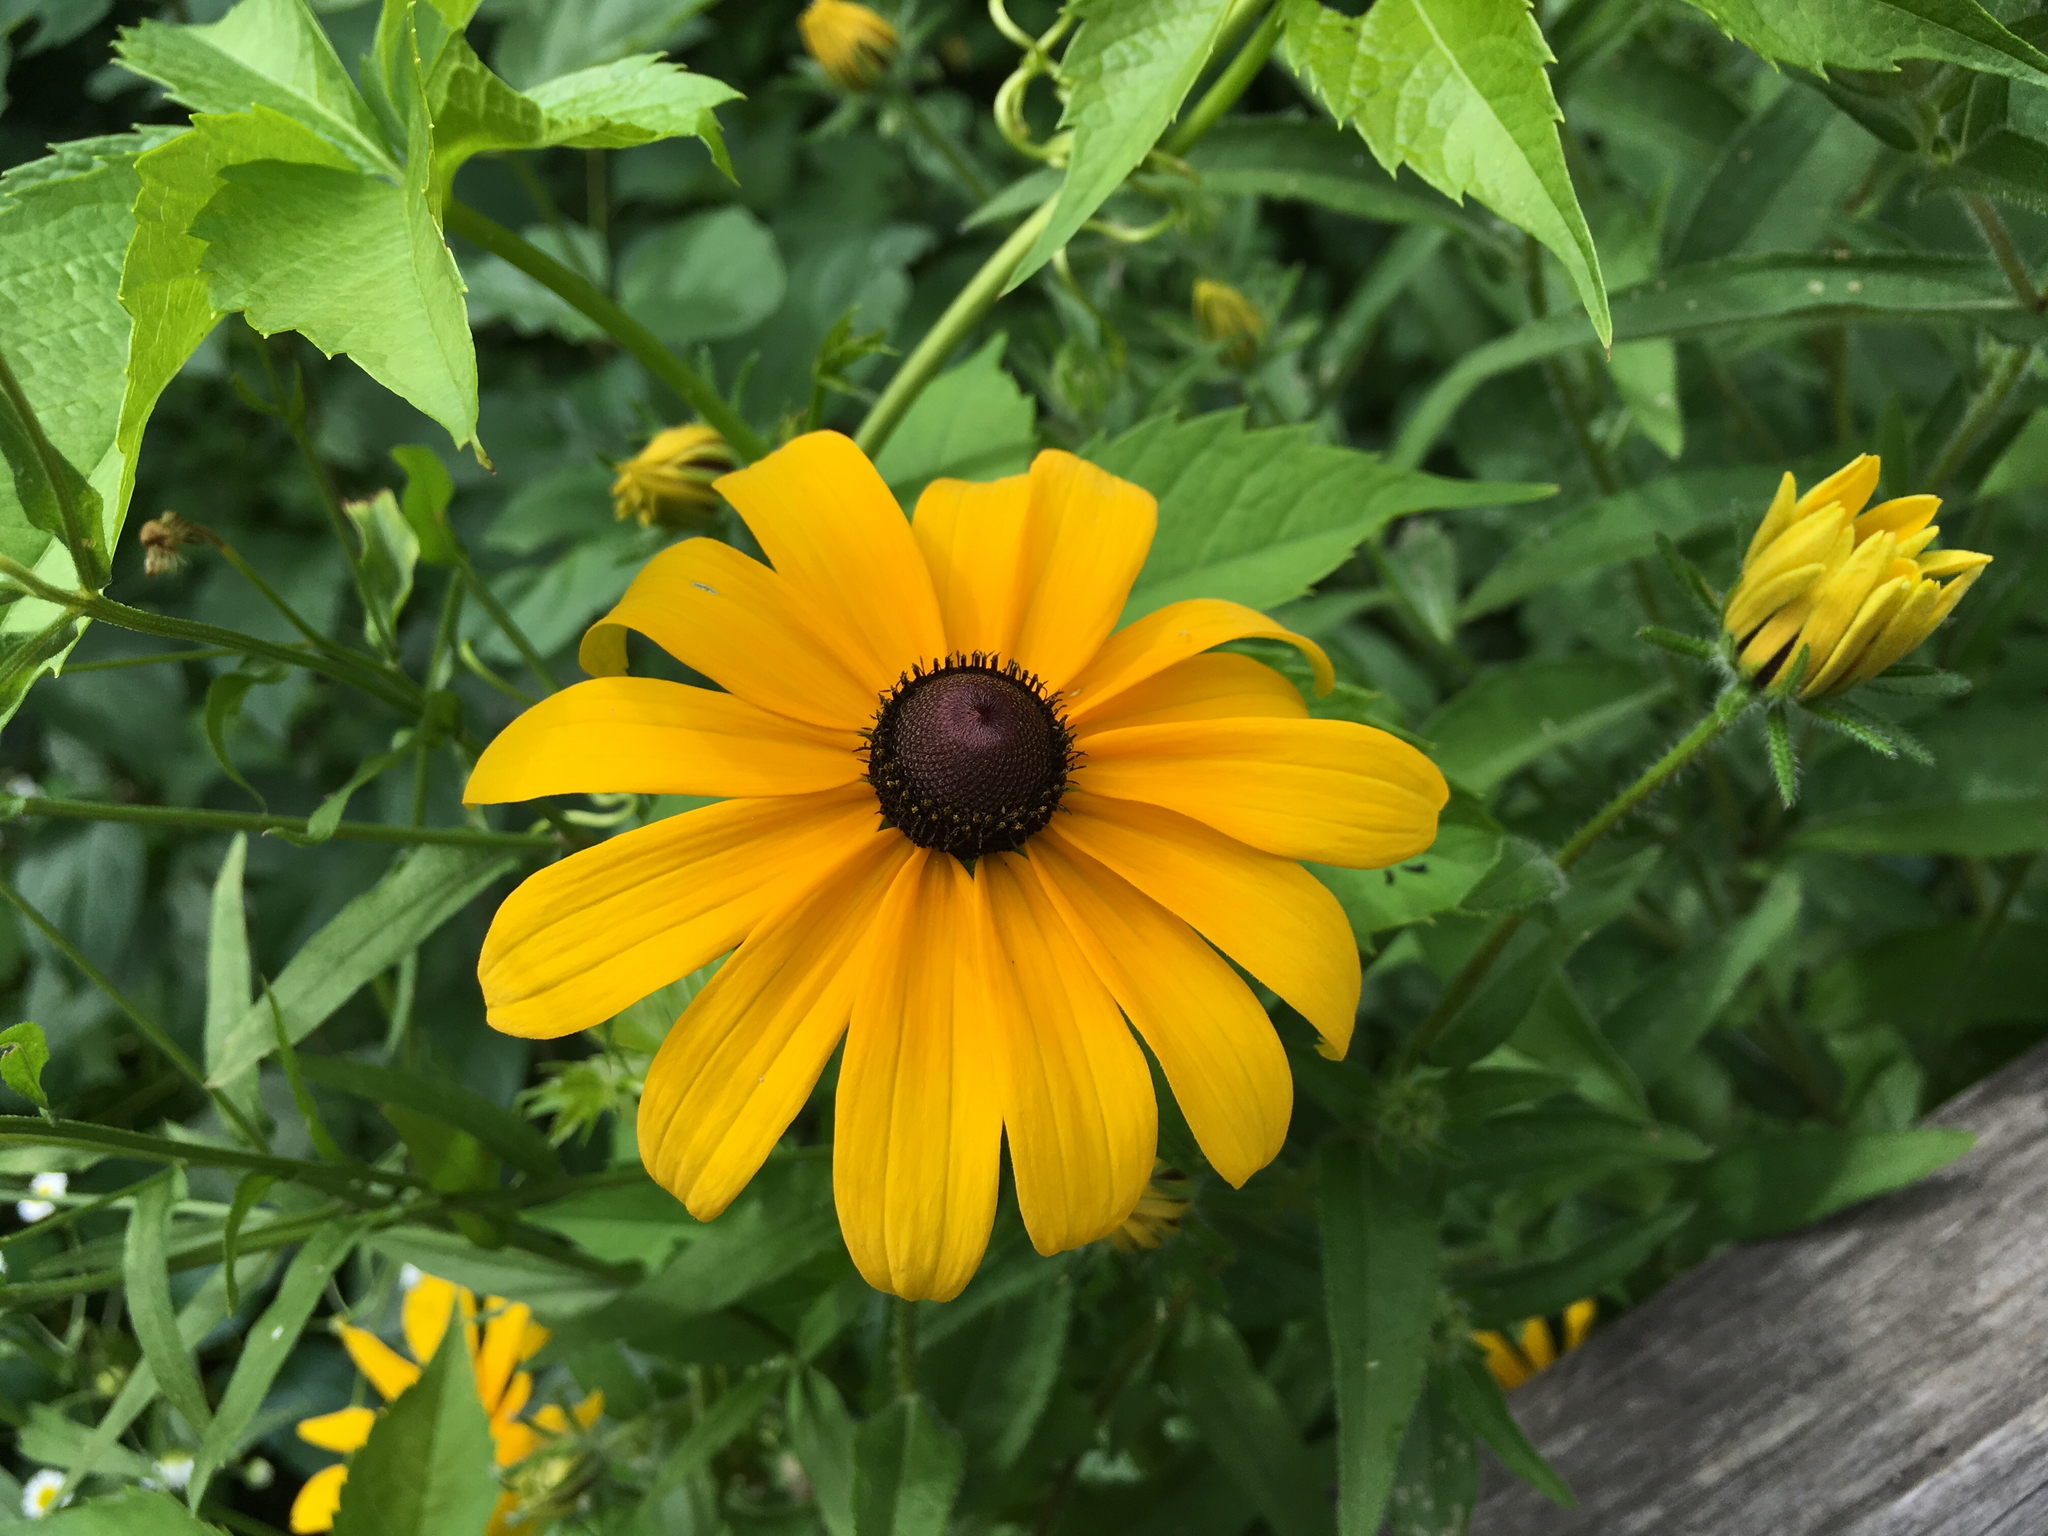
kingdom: Plantae
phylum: Tracheophyta
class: Magnoliopsida
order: Asterales
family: Asteraceae
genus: Rudbeckia
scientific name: Rudbeckia hirta
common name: Black-eyed-susan
